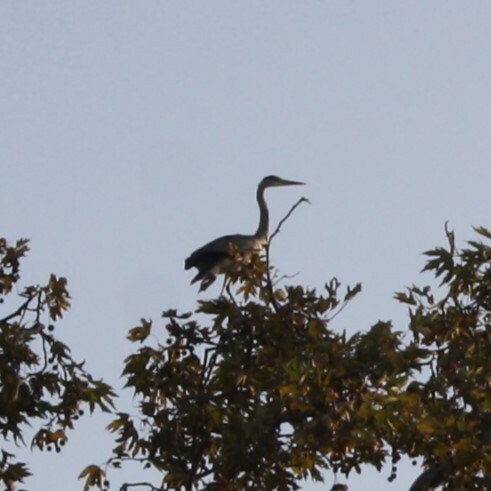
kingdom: Animalia
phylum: Chordata
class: Aves
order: Pelecaniformes
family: Ardeidae
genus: Ardea
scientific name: Ardea cinerea
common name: Grey heron
